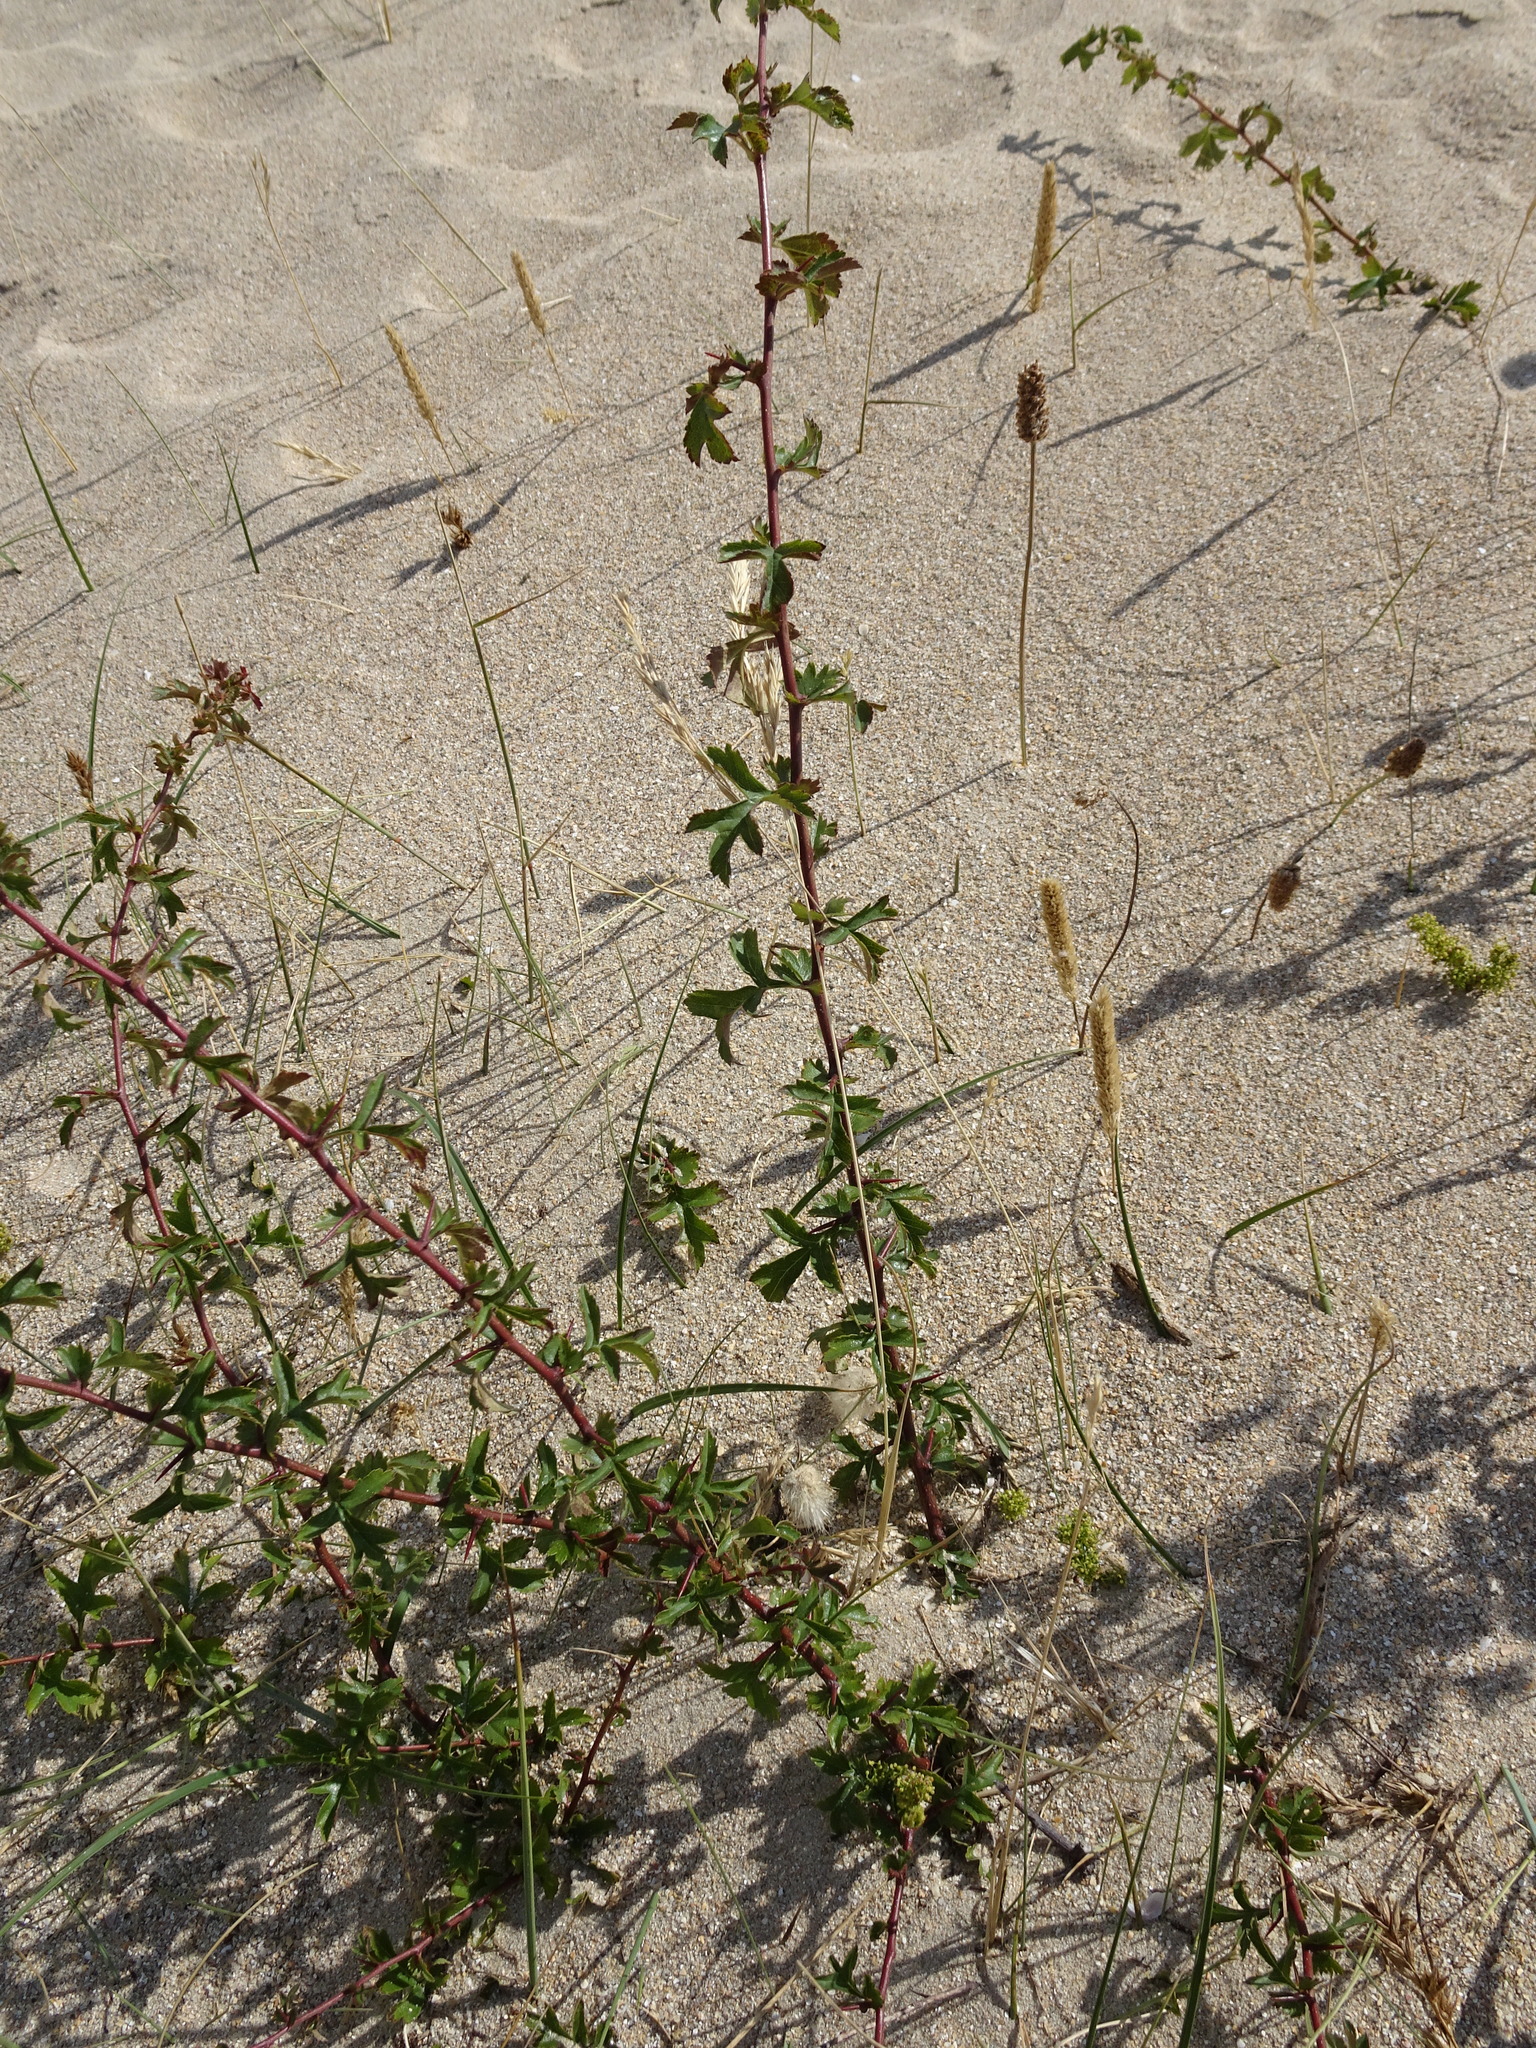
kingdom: Plantae
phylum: Tracheophyta
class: Magnoliopsida
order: Rosales
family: Rosaceae
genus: Crataegus
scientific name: Crataegus monogyna
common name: Hawthorn
